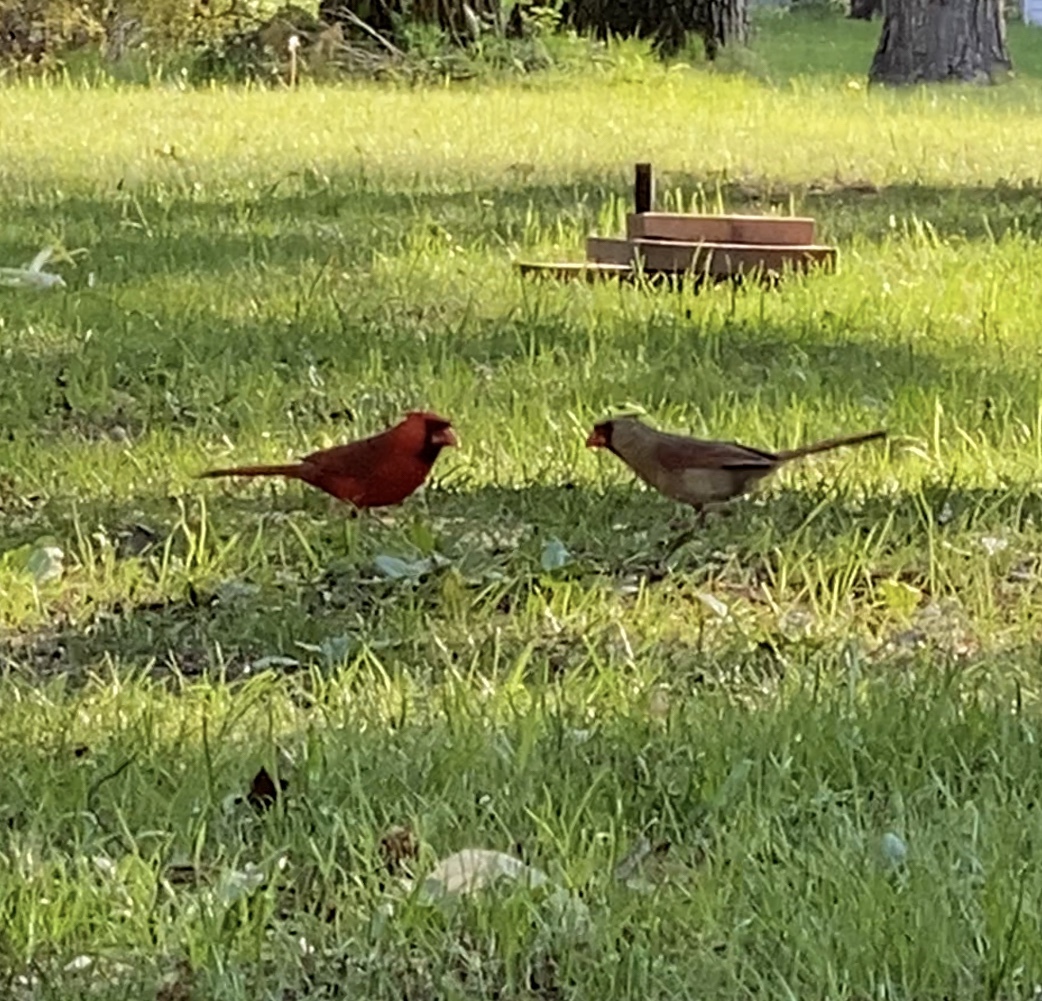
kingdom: Animalia
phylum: Chordata
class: Aves
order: Passeriformes
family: Cardinalidae
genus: Cardinalis
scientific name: Cardinalis cardinalis
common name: Northern cardinal
